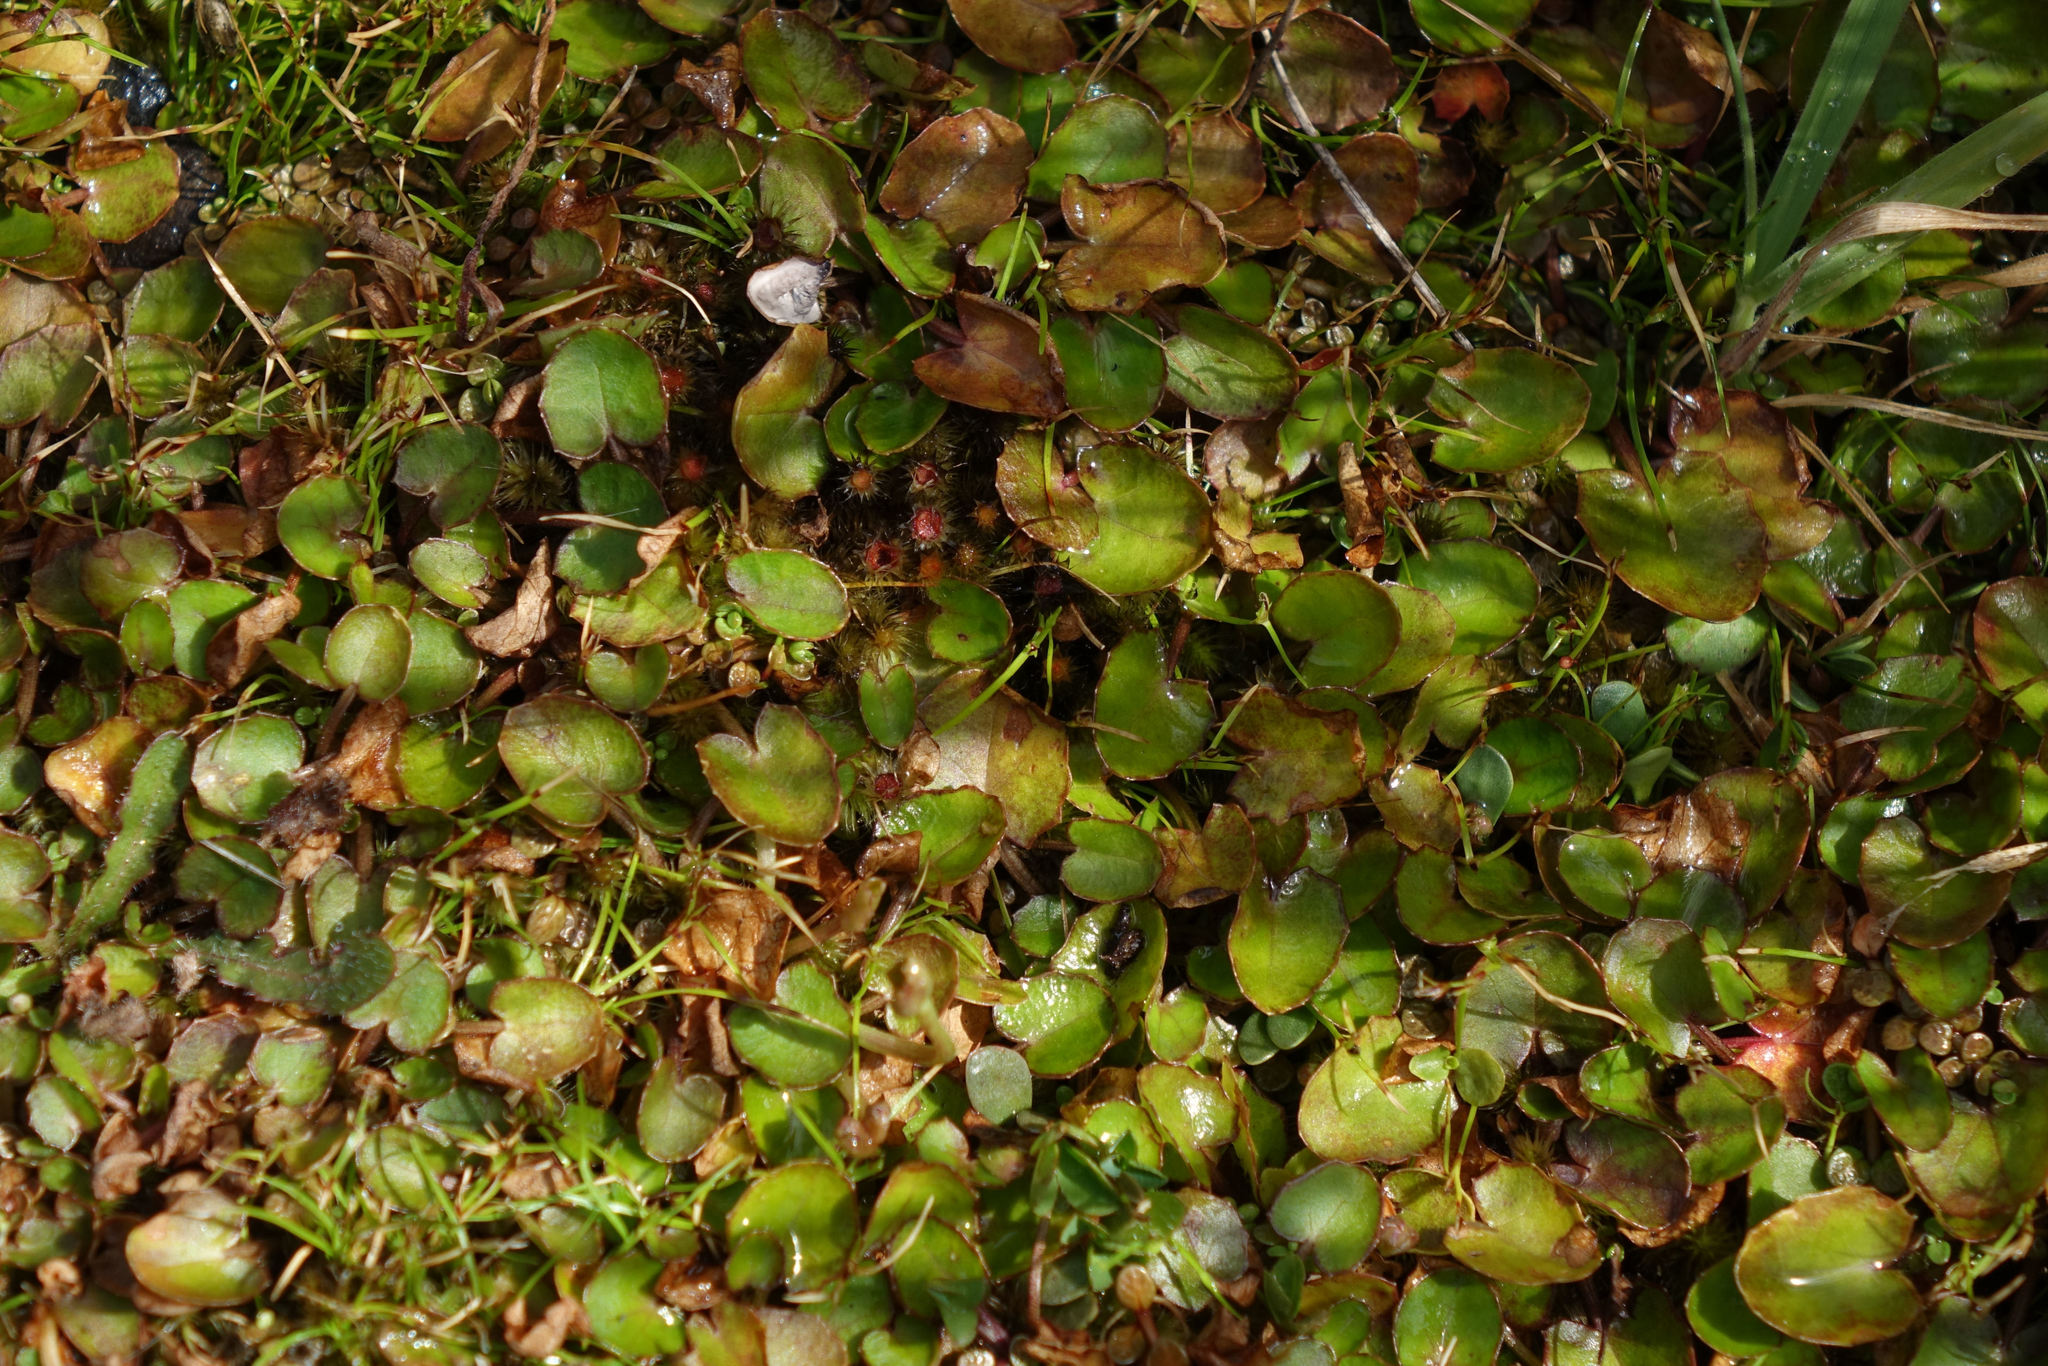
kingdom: Plantae
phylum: Tracheophyta
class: Magnoliopsida
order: Apiales
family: Apiaceae
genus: Centella
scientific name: Centella uniflora
